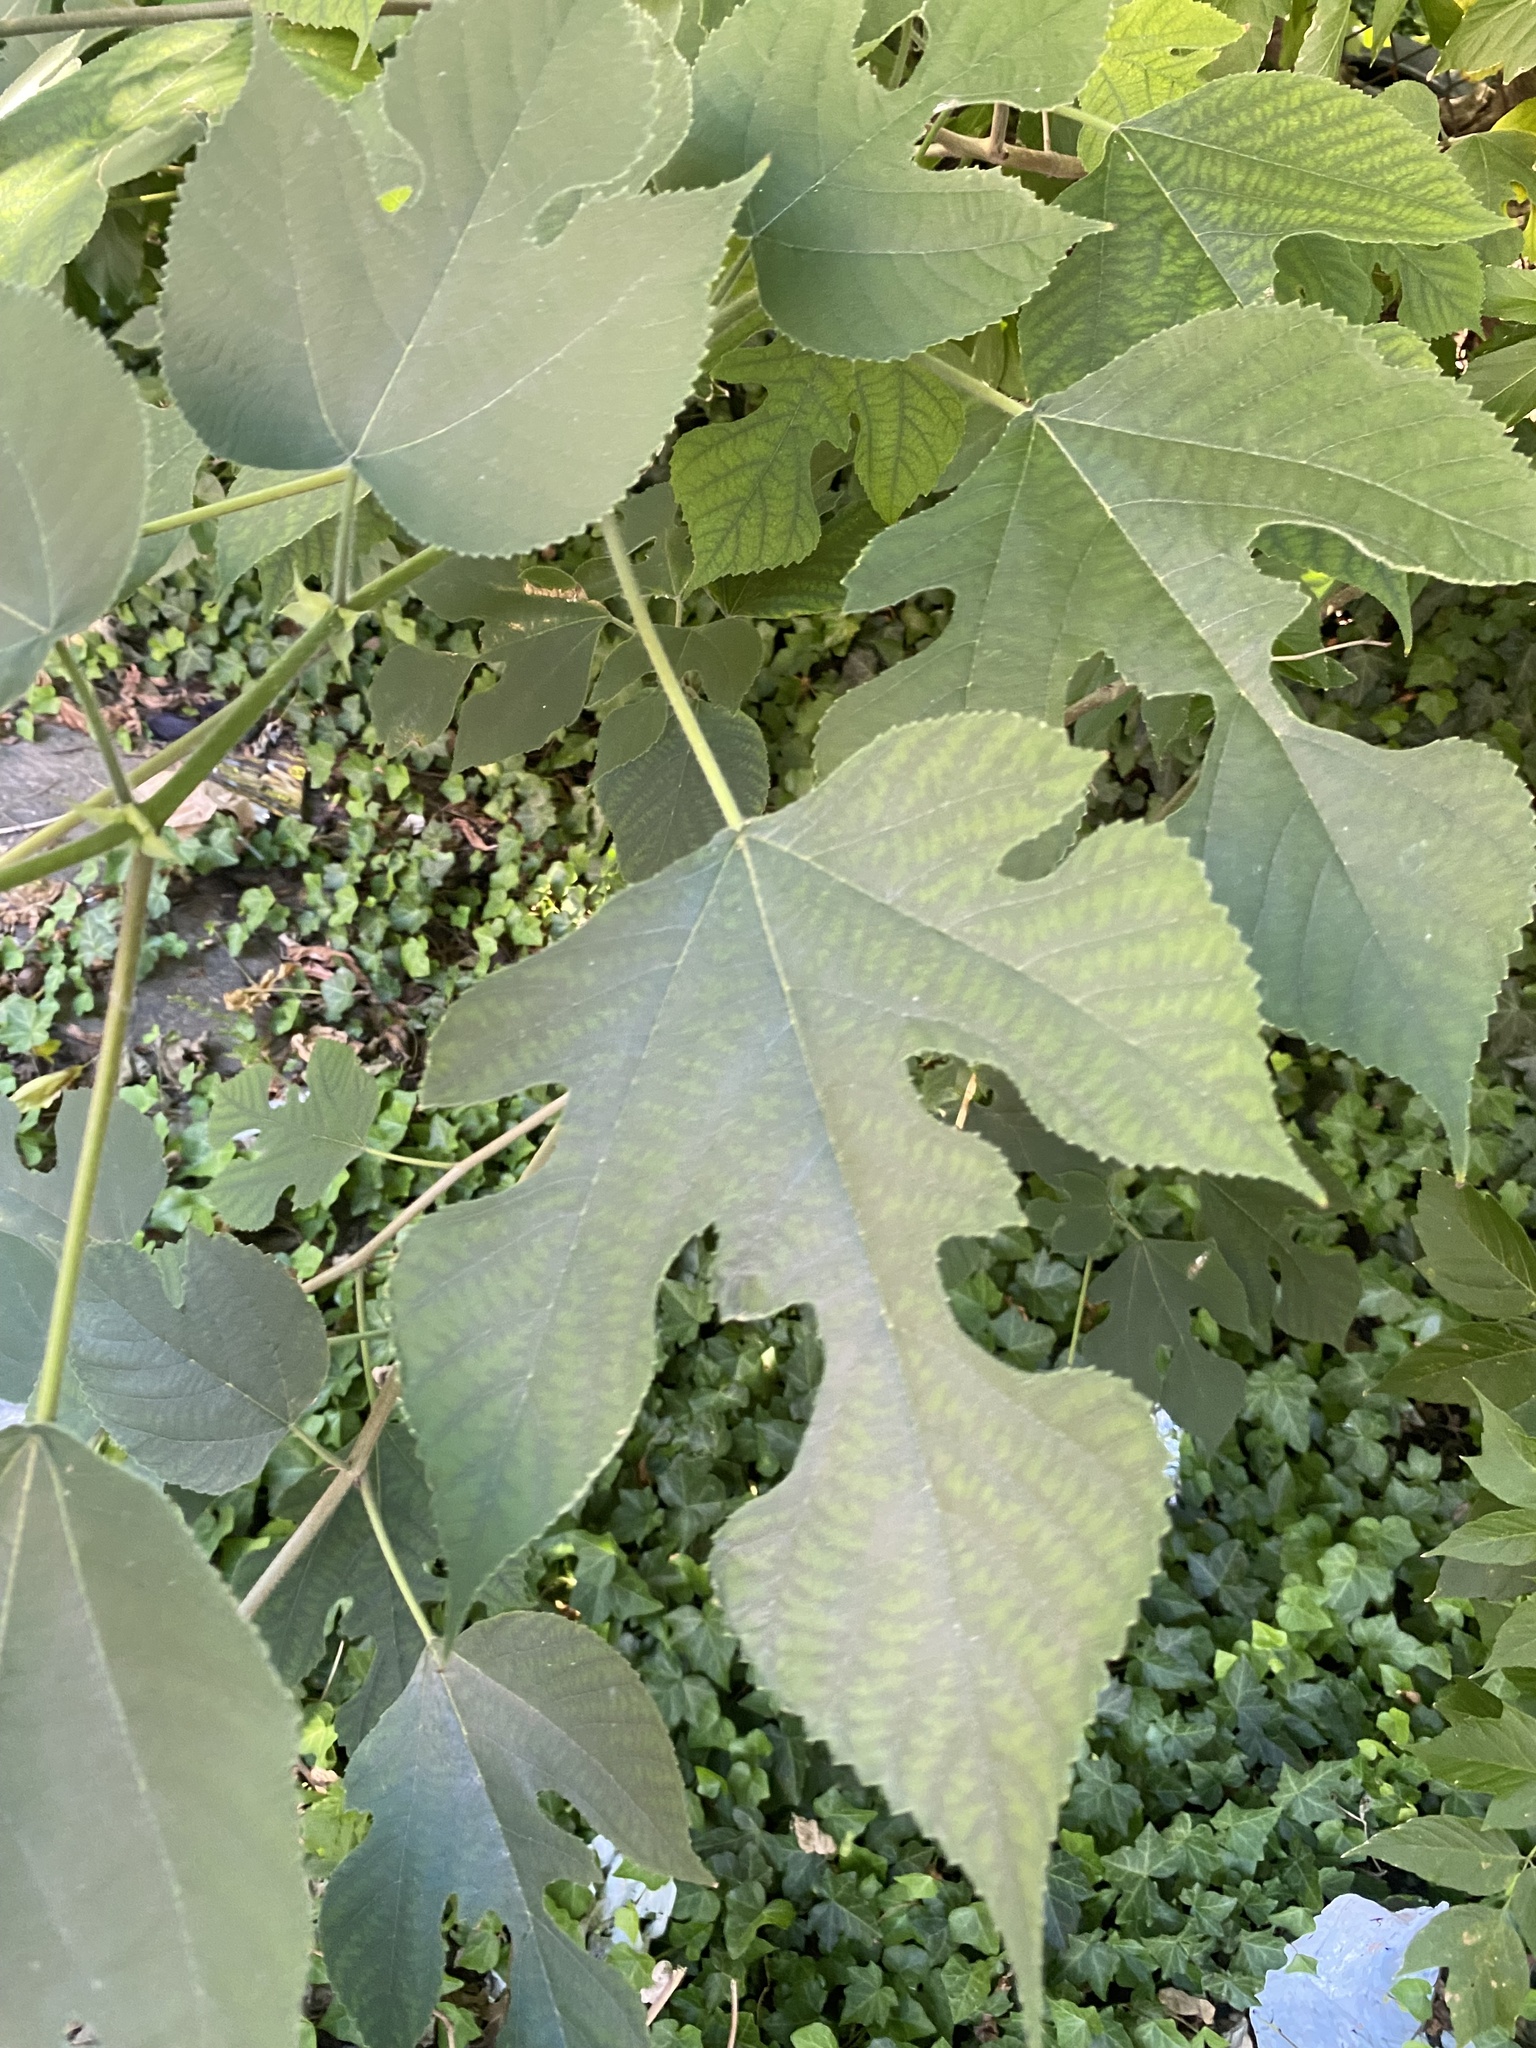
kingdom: Plantae
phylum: Tracheophyta
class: Magnoliopsida
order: Rosales
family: Moraceae
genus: Broussonetia
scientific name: Broussonetia papyrifera
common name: Paper mulberry
